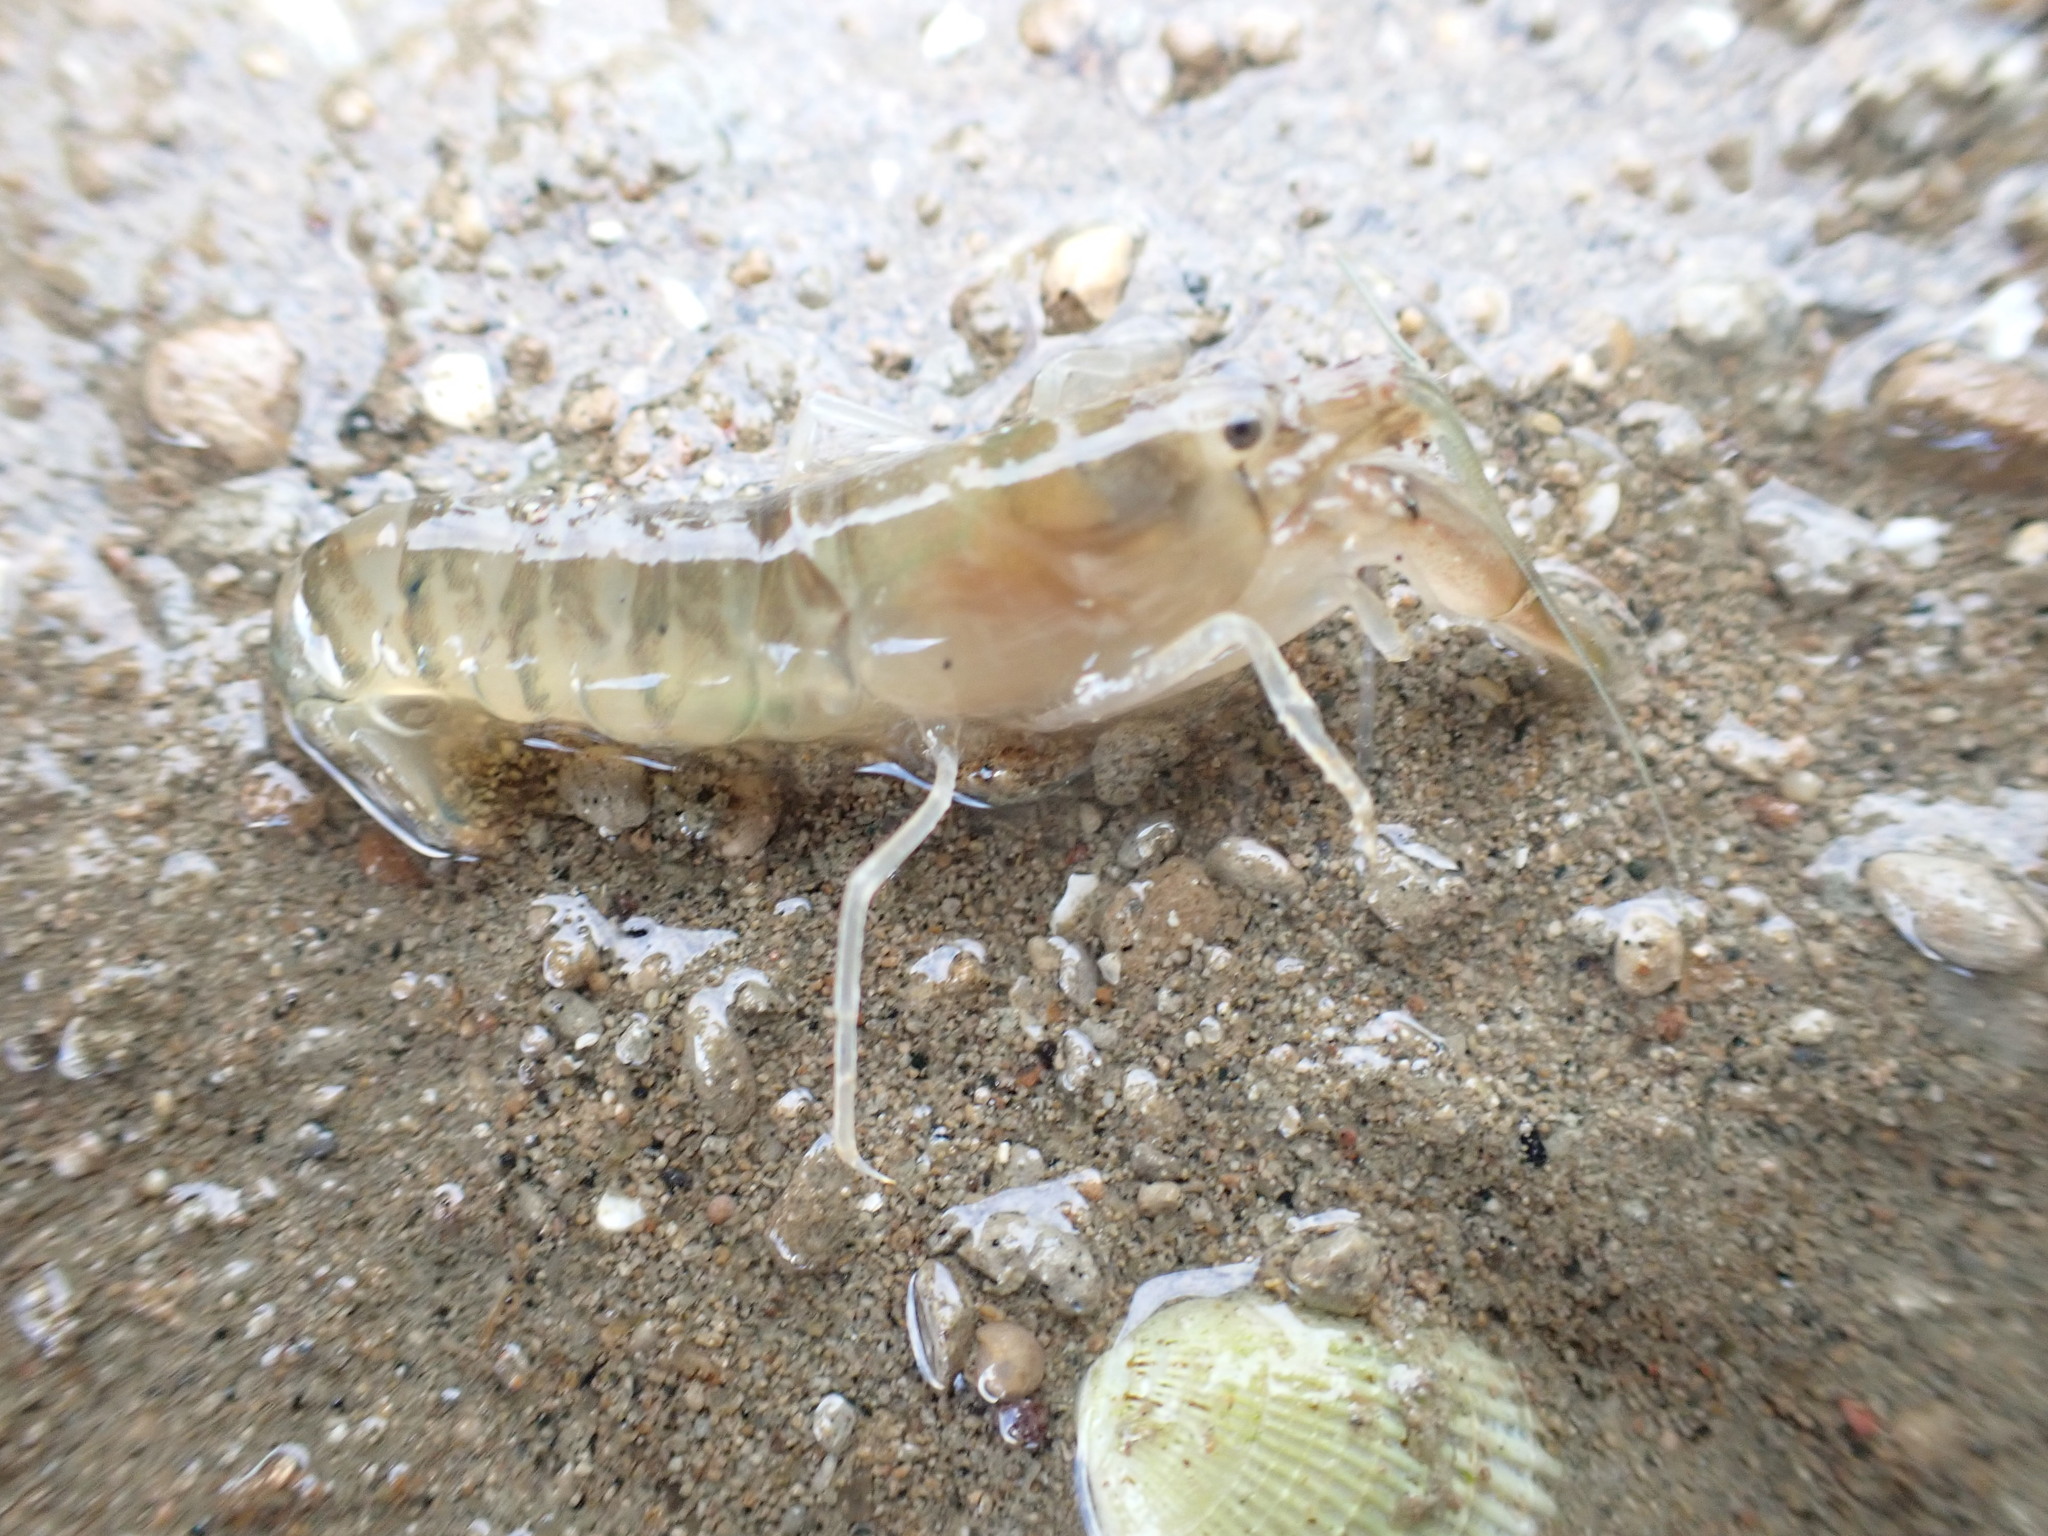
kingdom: Animalia
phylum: Arthropoda
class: Malacostraca
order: Decapoda
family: Alpheidae
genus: Alpheus
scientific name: Alpheus richardsoni
